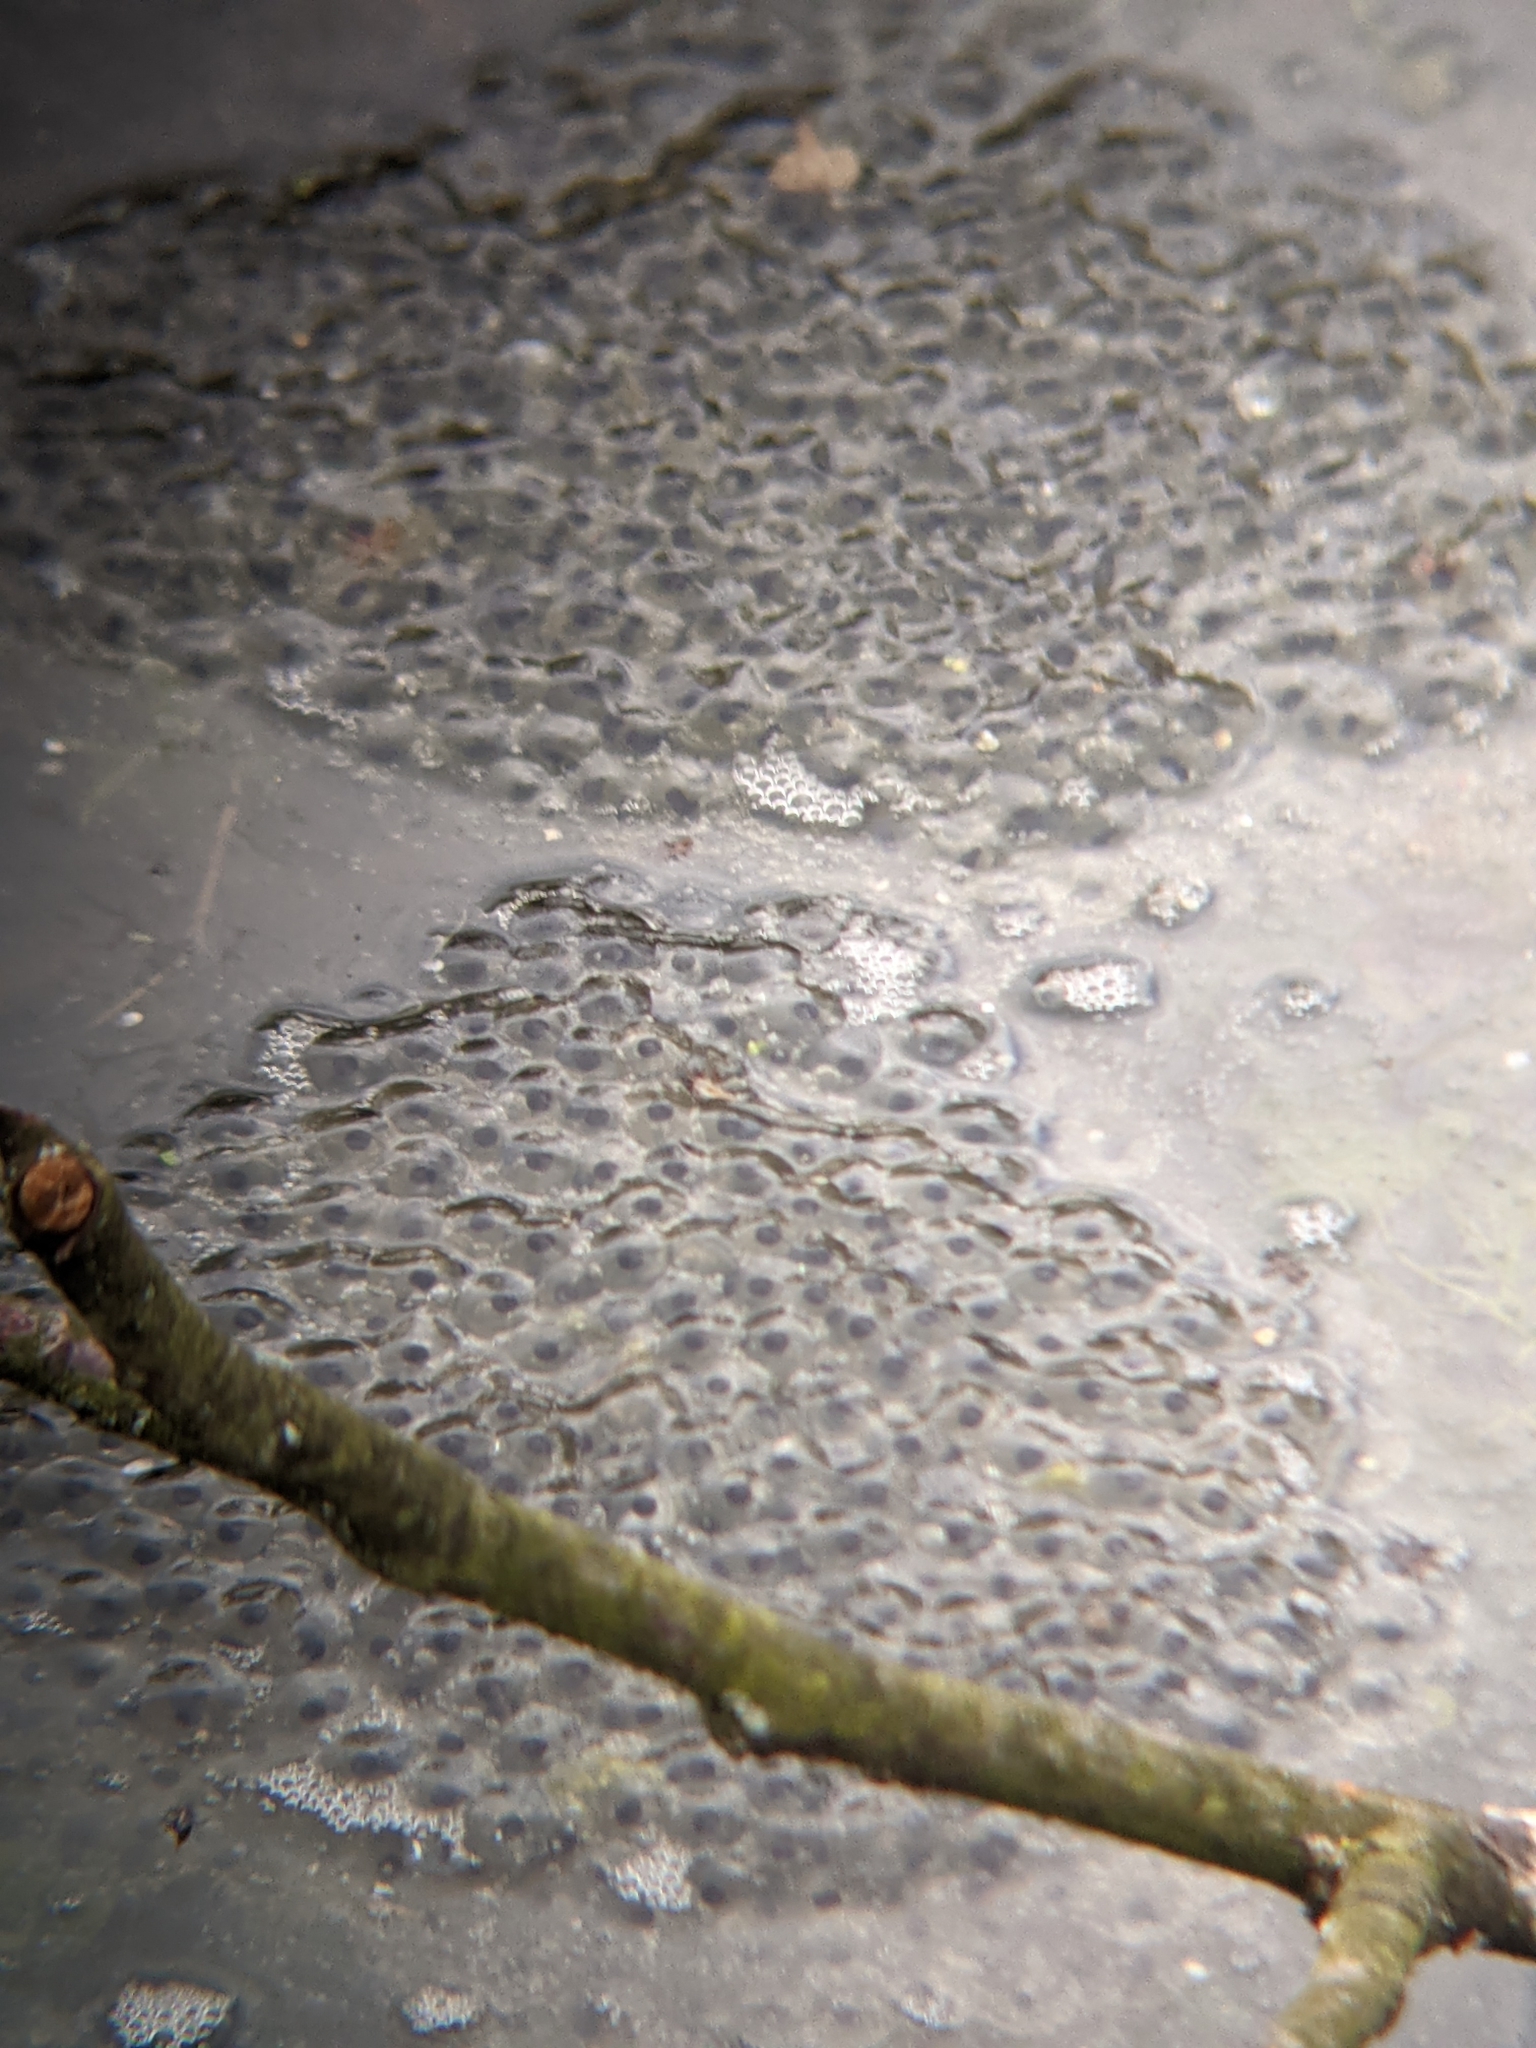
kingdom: Animalia
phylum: Chordata
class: Amphibia
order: Anura
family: Ranidae
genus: Rana
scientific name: Rana temporaria
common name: Common frog
